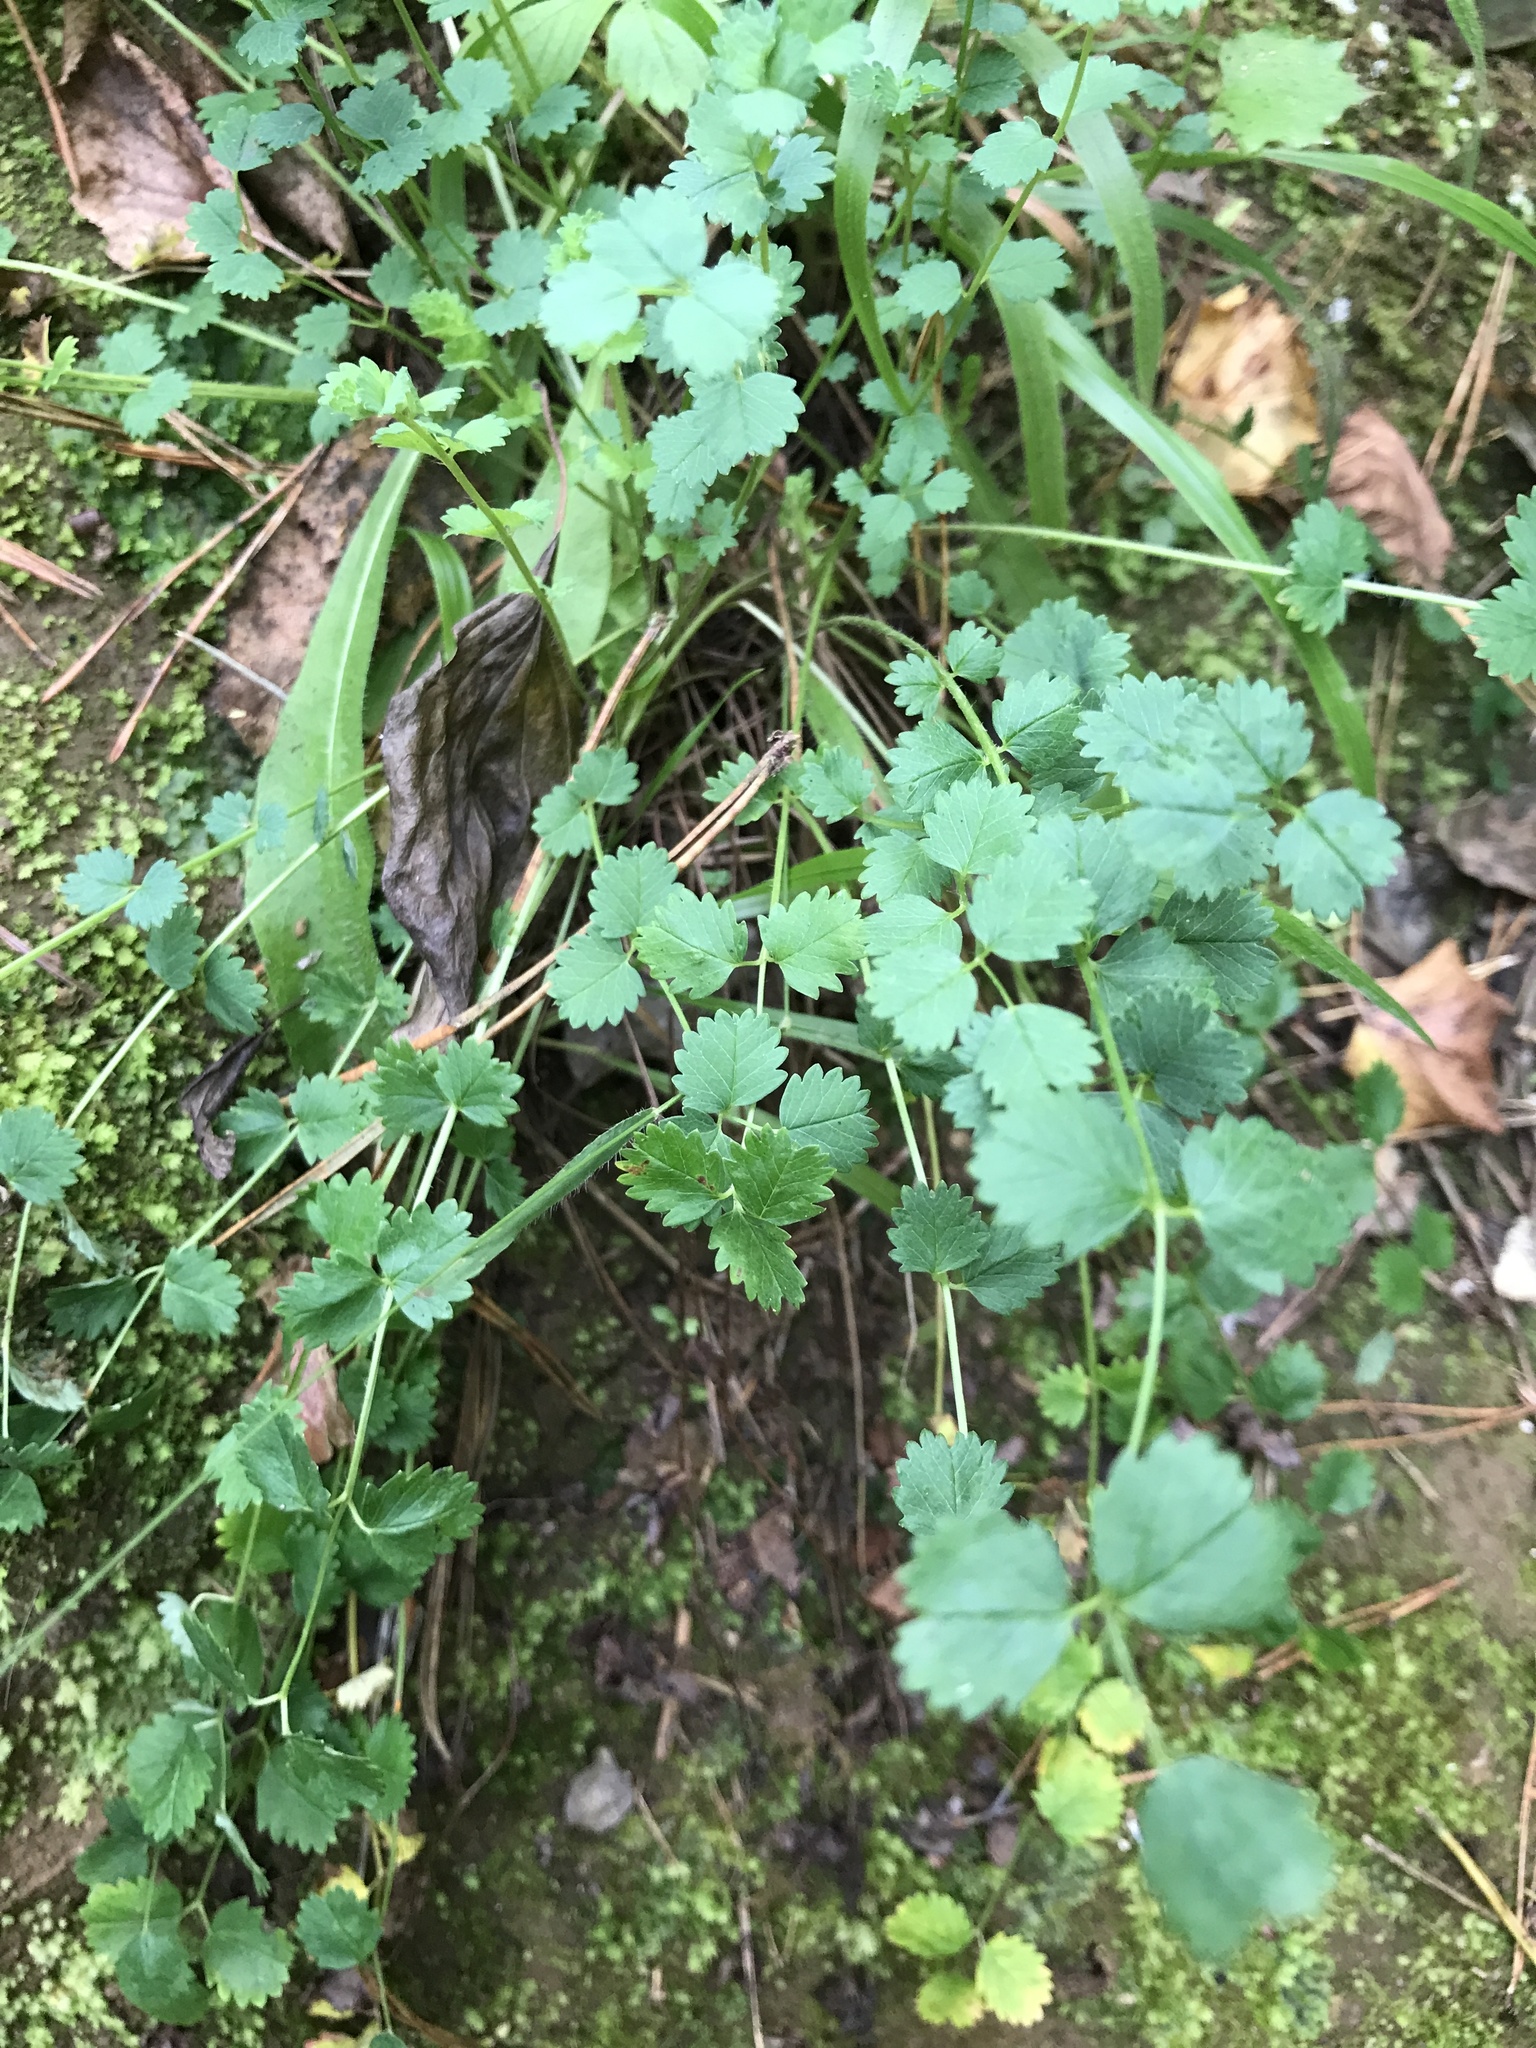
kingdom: Plantae
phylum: Tracheophyta
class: Magnoliopsida
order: Rosales
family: Rosaceae
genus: Poterium
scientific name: Poterium sanguisorba
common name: Salad burnet
